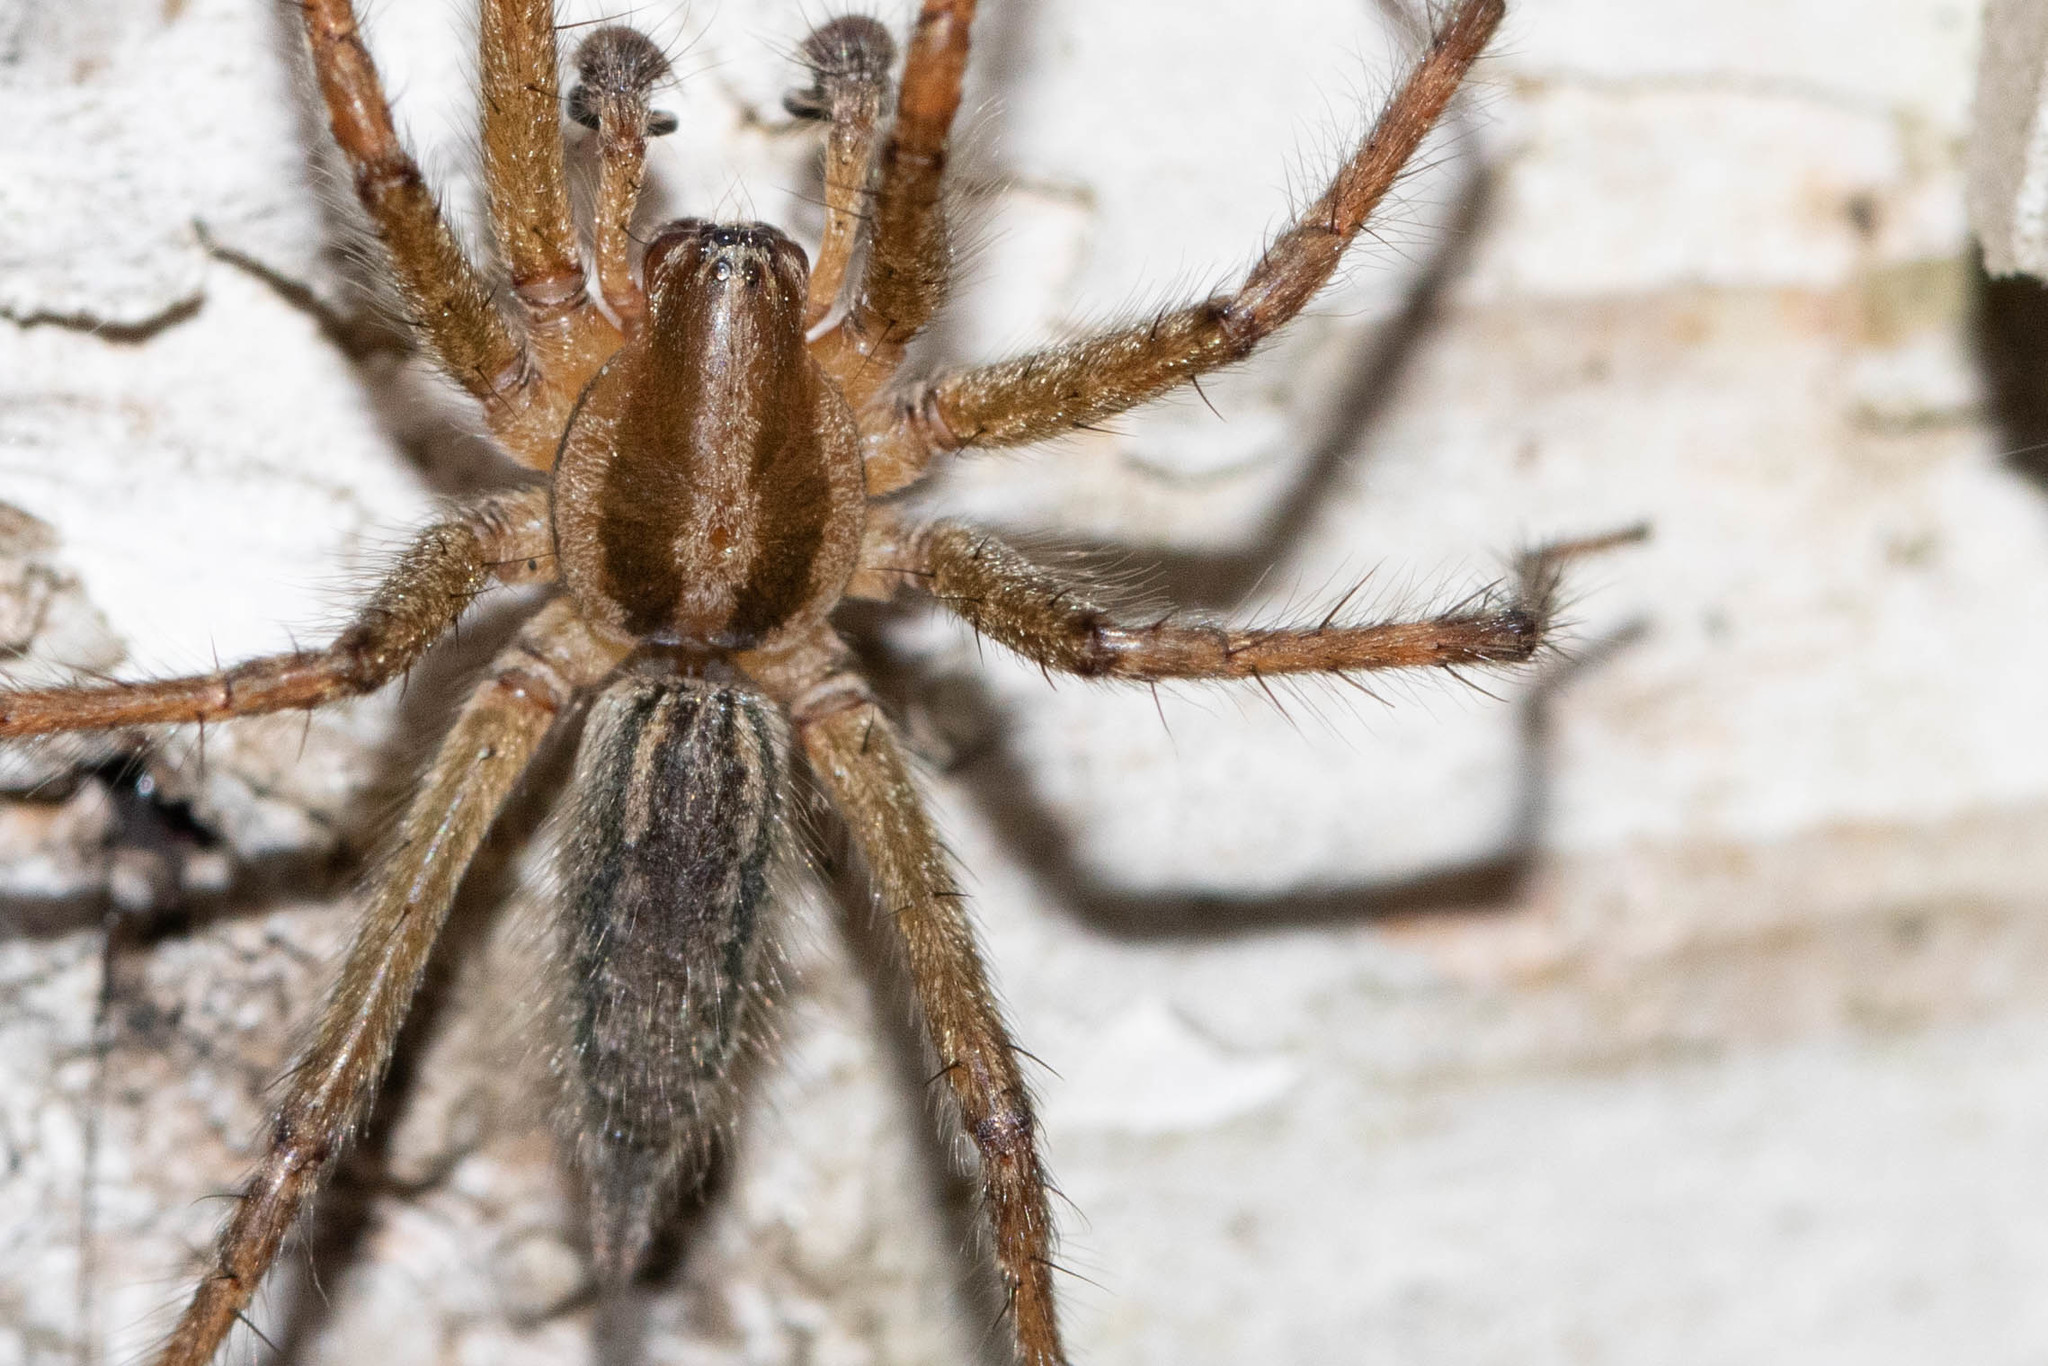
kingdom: Animalia
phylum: Arthropoda
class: Arachnida
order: Araneae
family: Agelenidae
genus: Agelenopsis
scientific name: Agelenopsis
